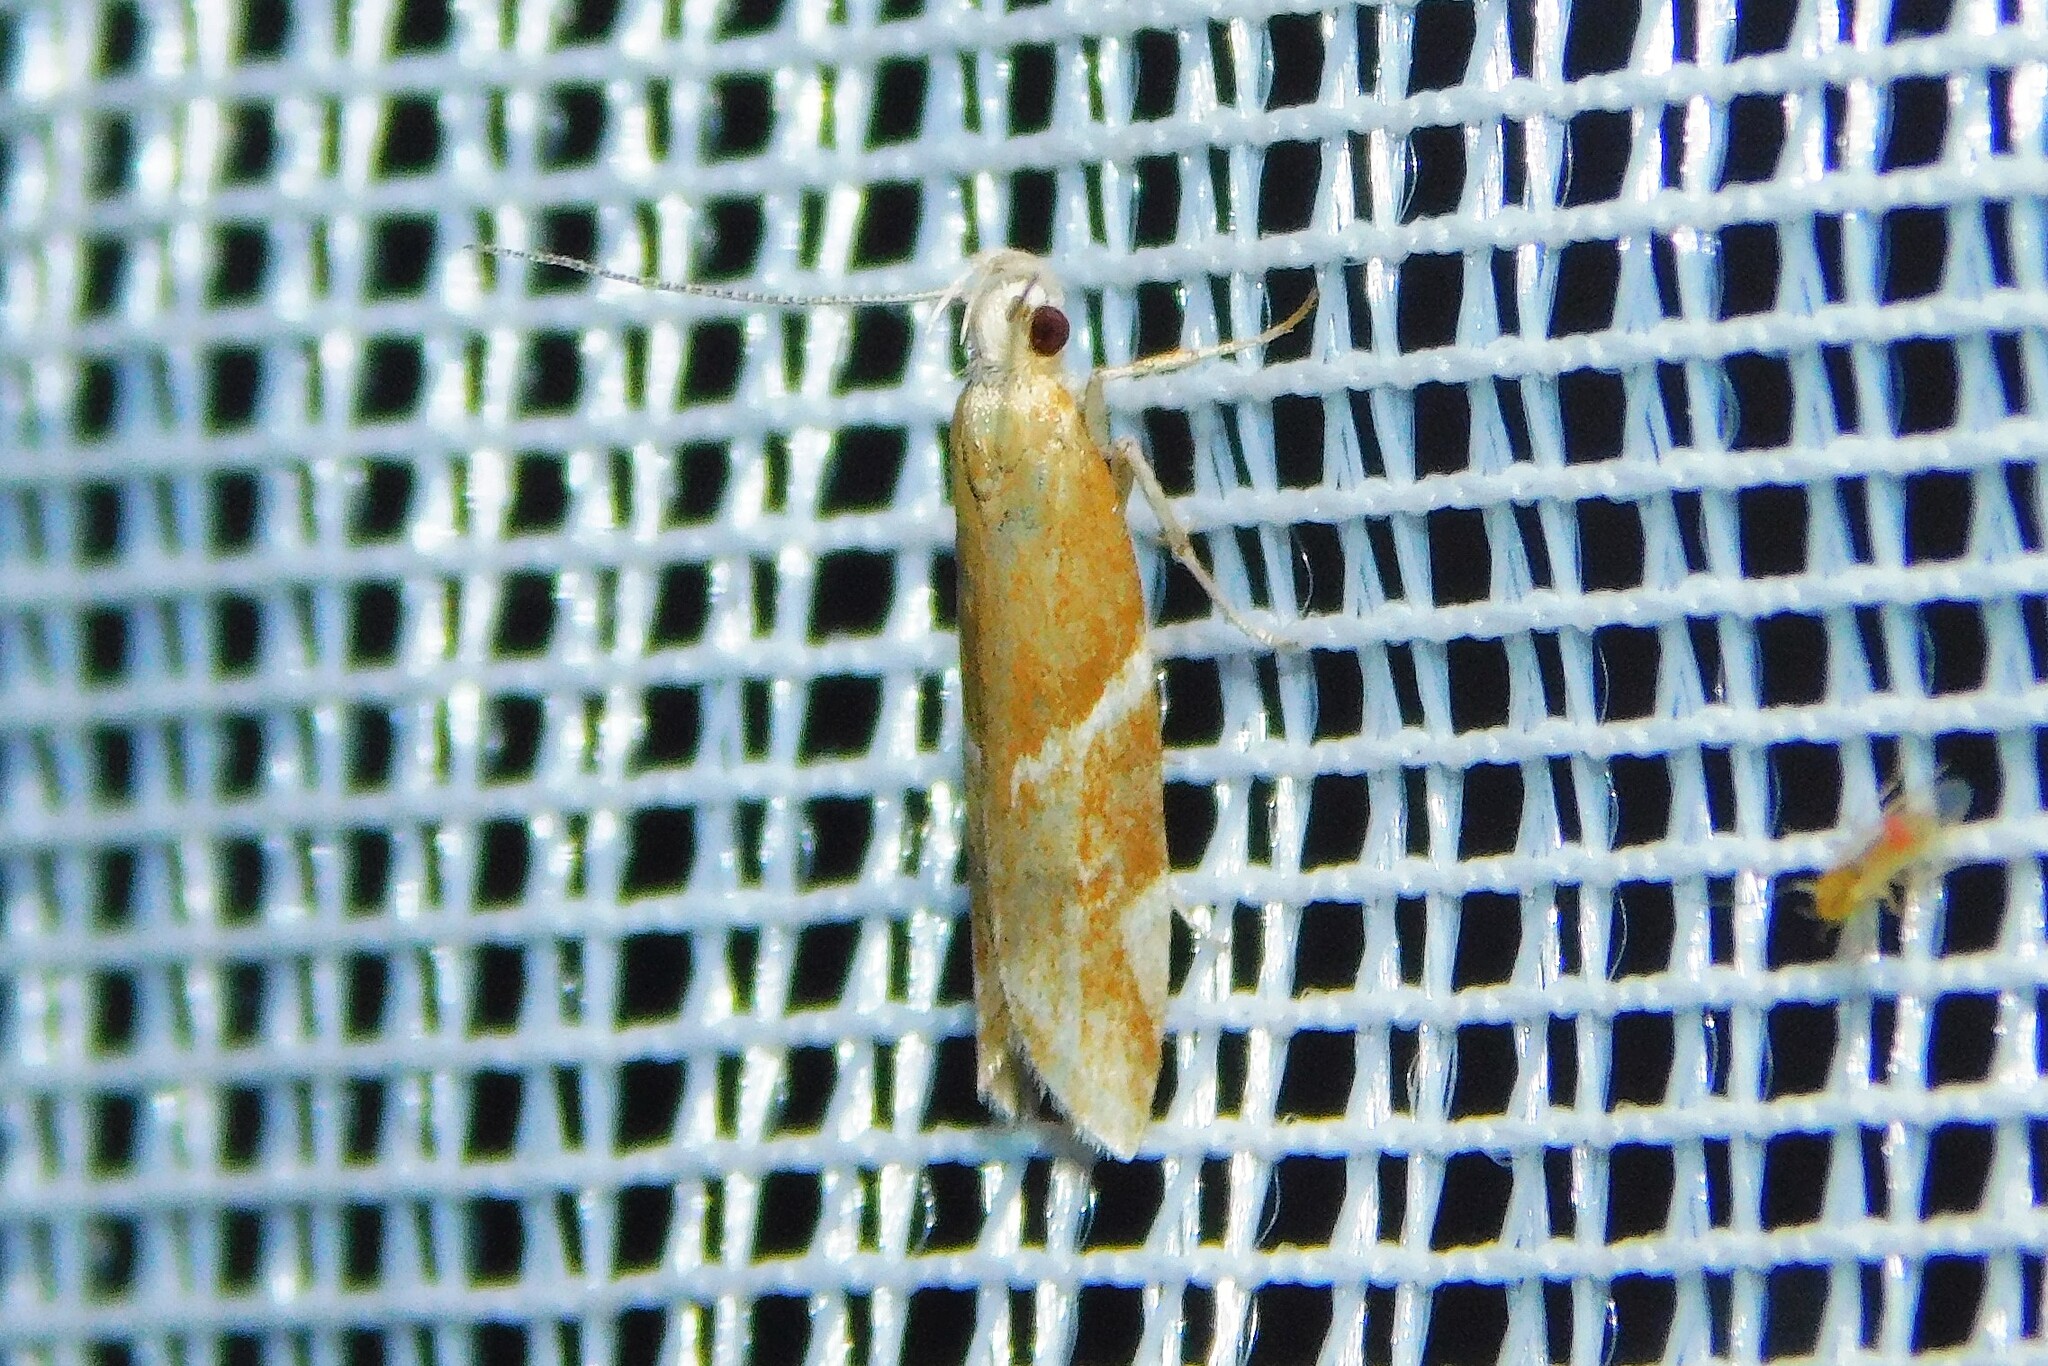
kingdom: Animalia
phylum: Arthropoda
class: Insecta
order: Lepidoptera
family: Depressariidae
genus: Orophia
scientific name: Orophia sordidella
